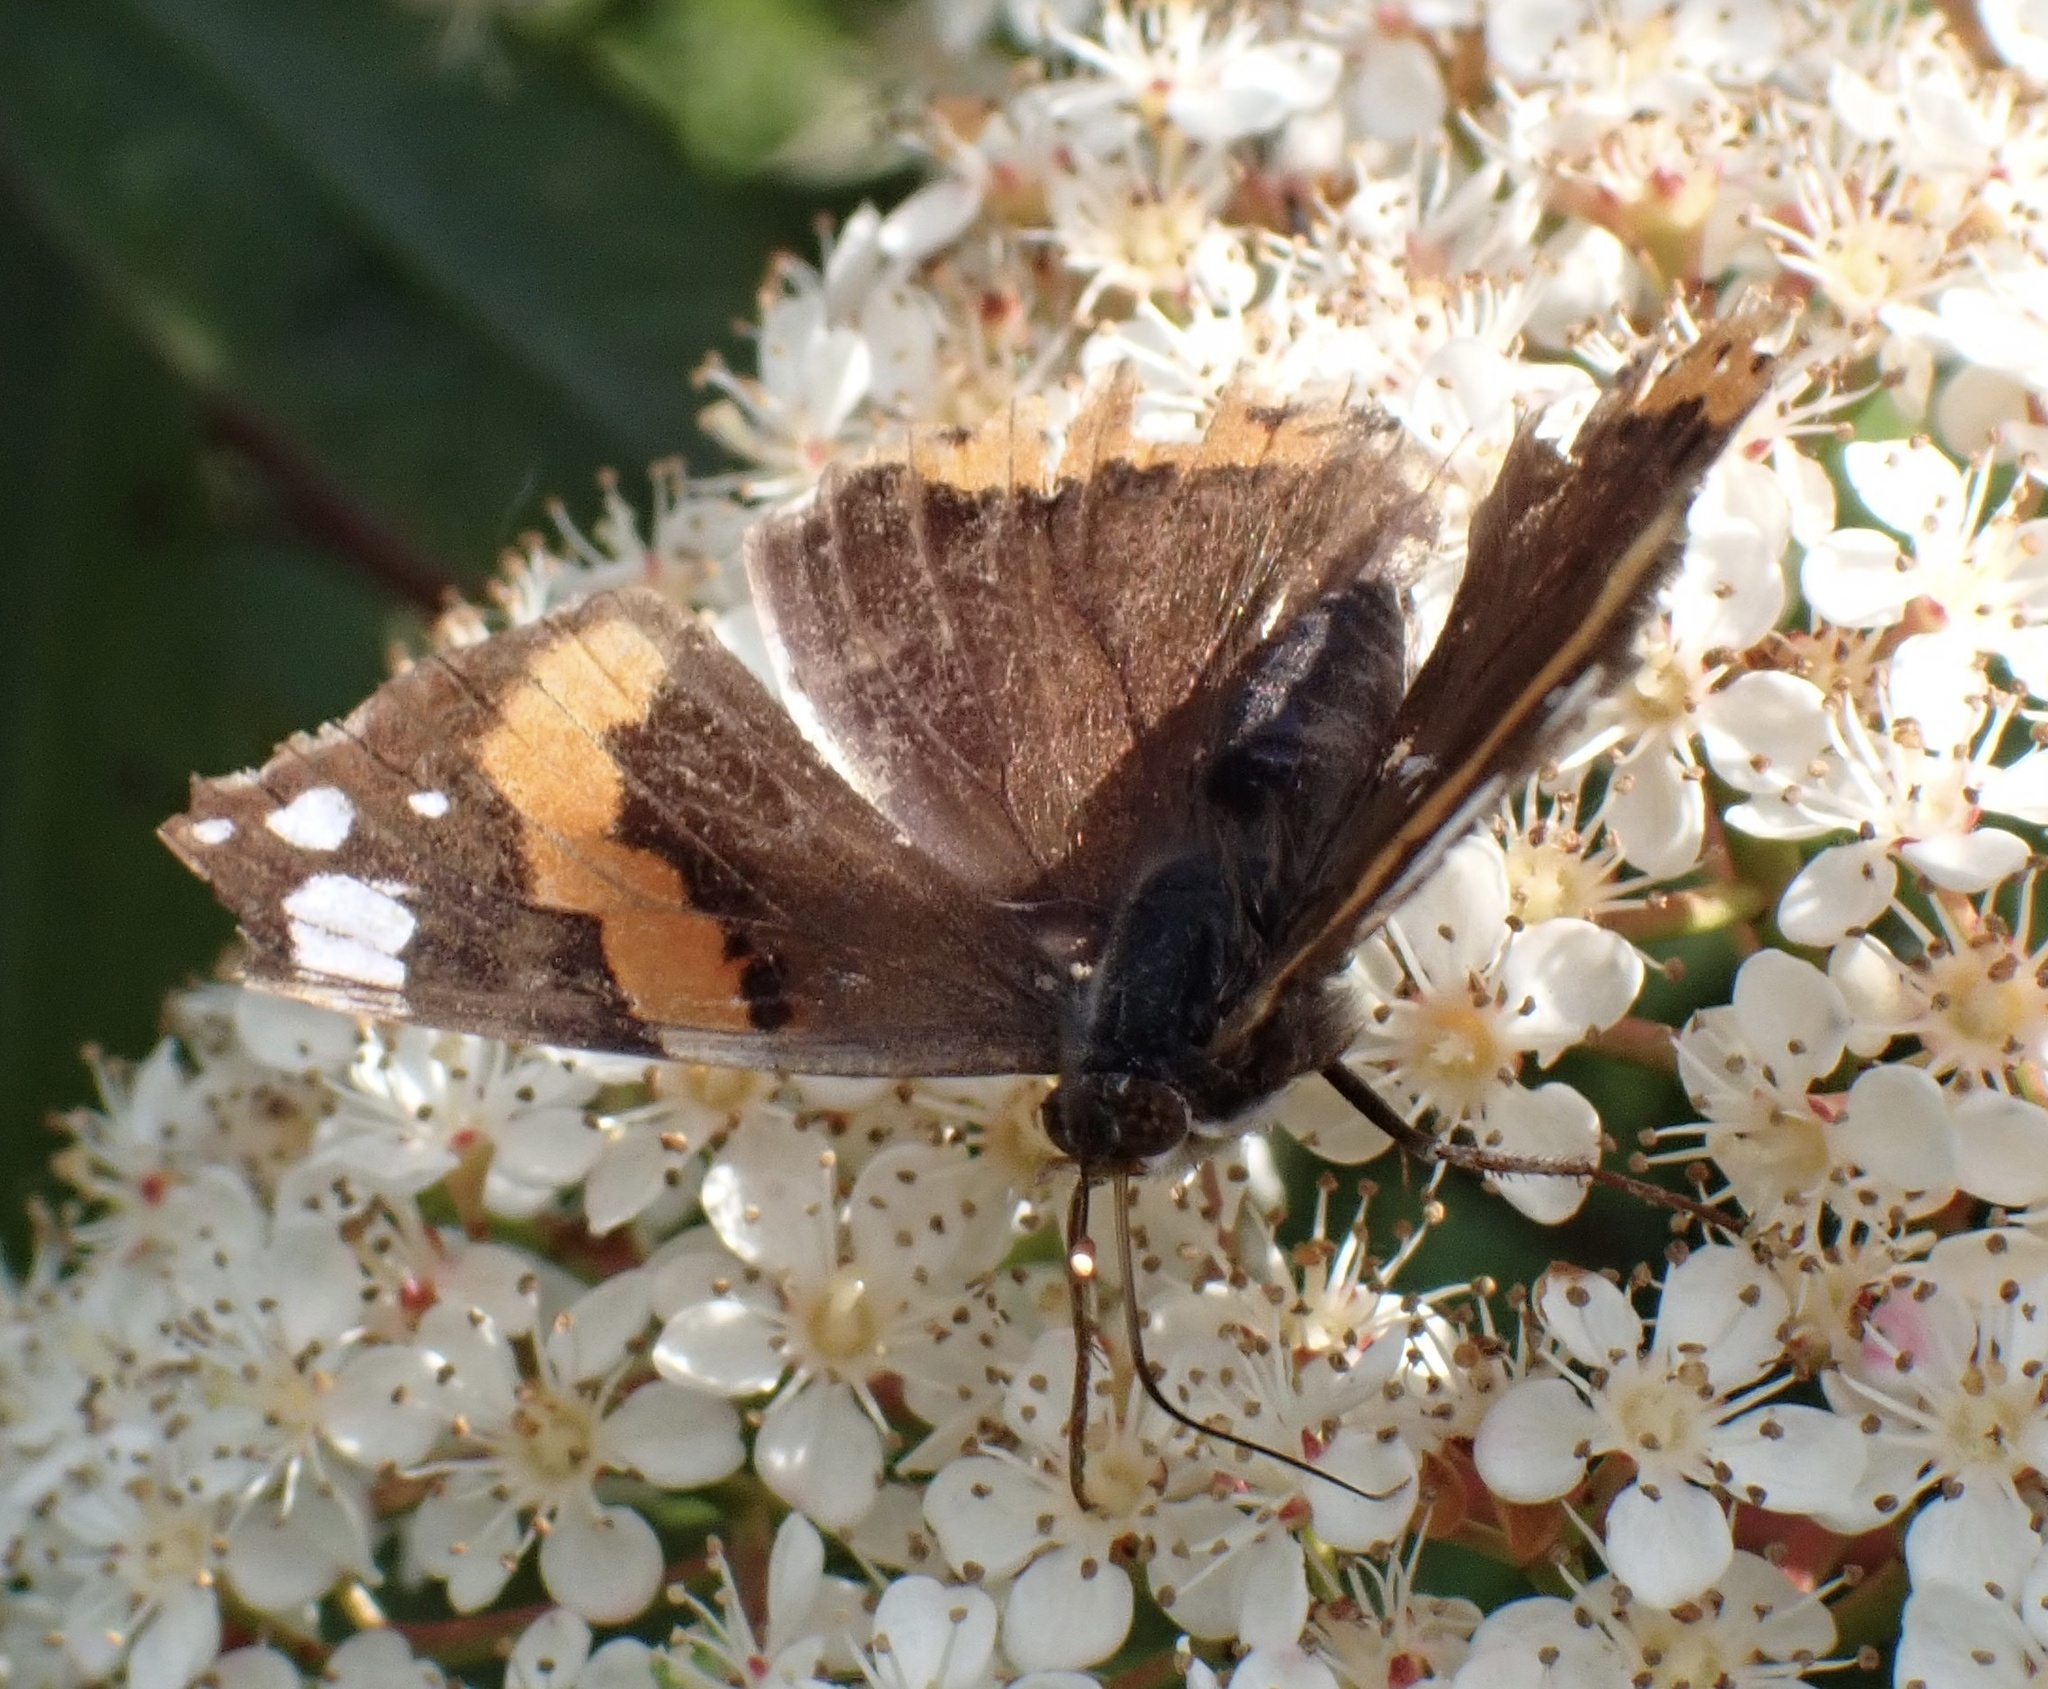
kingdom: Animalia
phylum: Arthropoda
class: Insecta
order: Lepidoptera
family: Nymphalidae
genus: Vanessa
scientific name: Vanessa atalanta
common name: Red admiral
